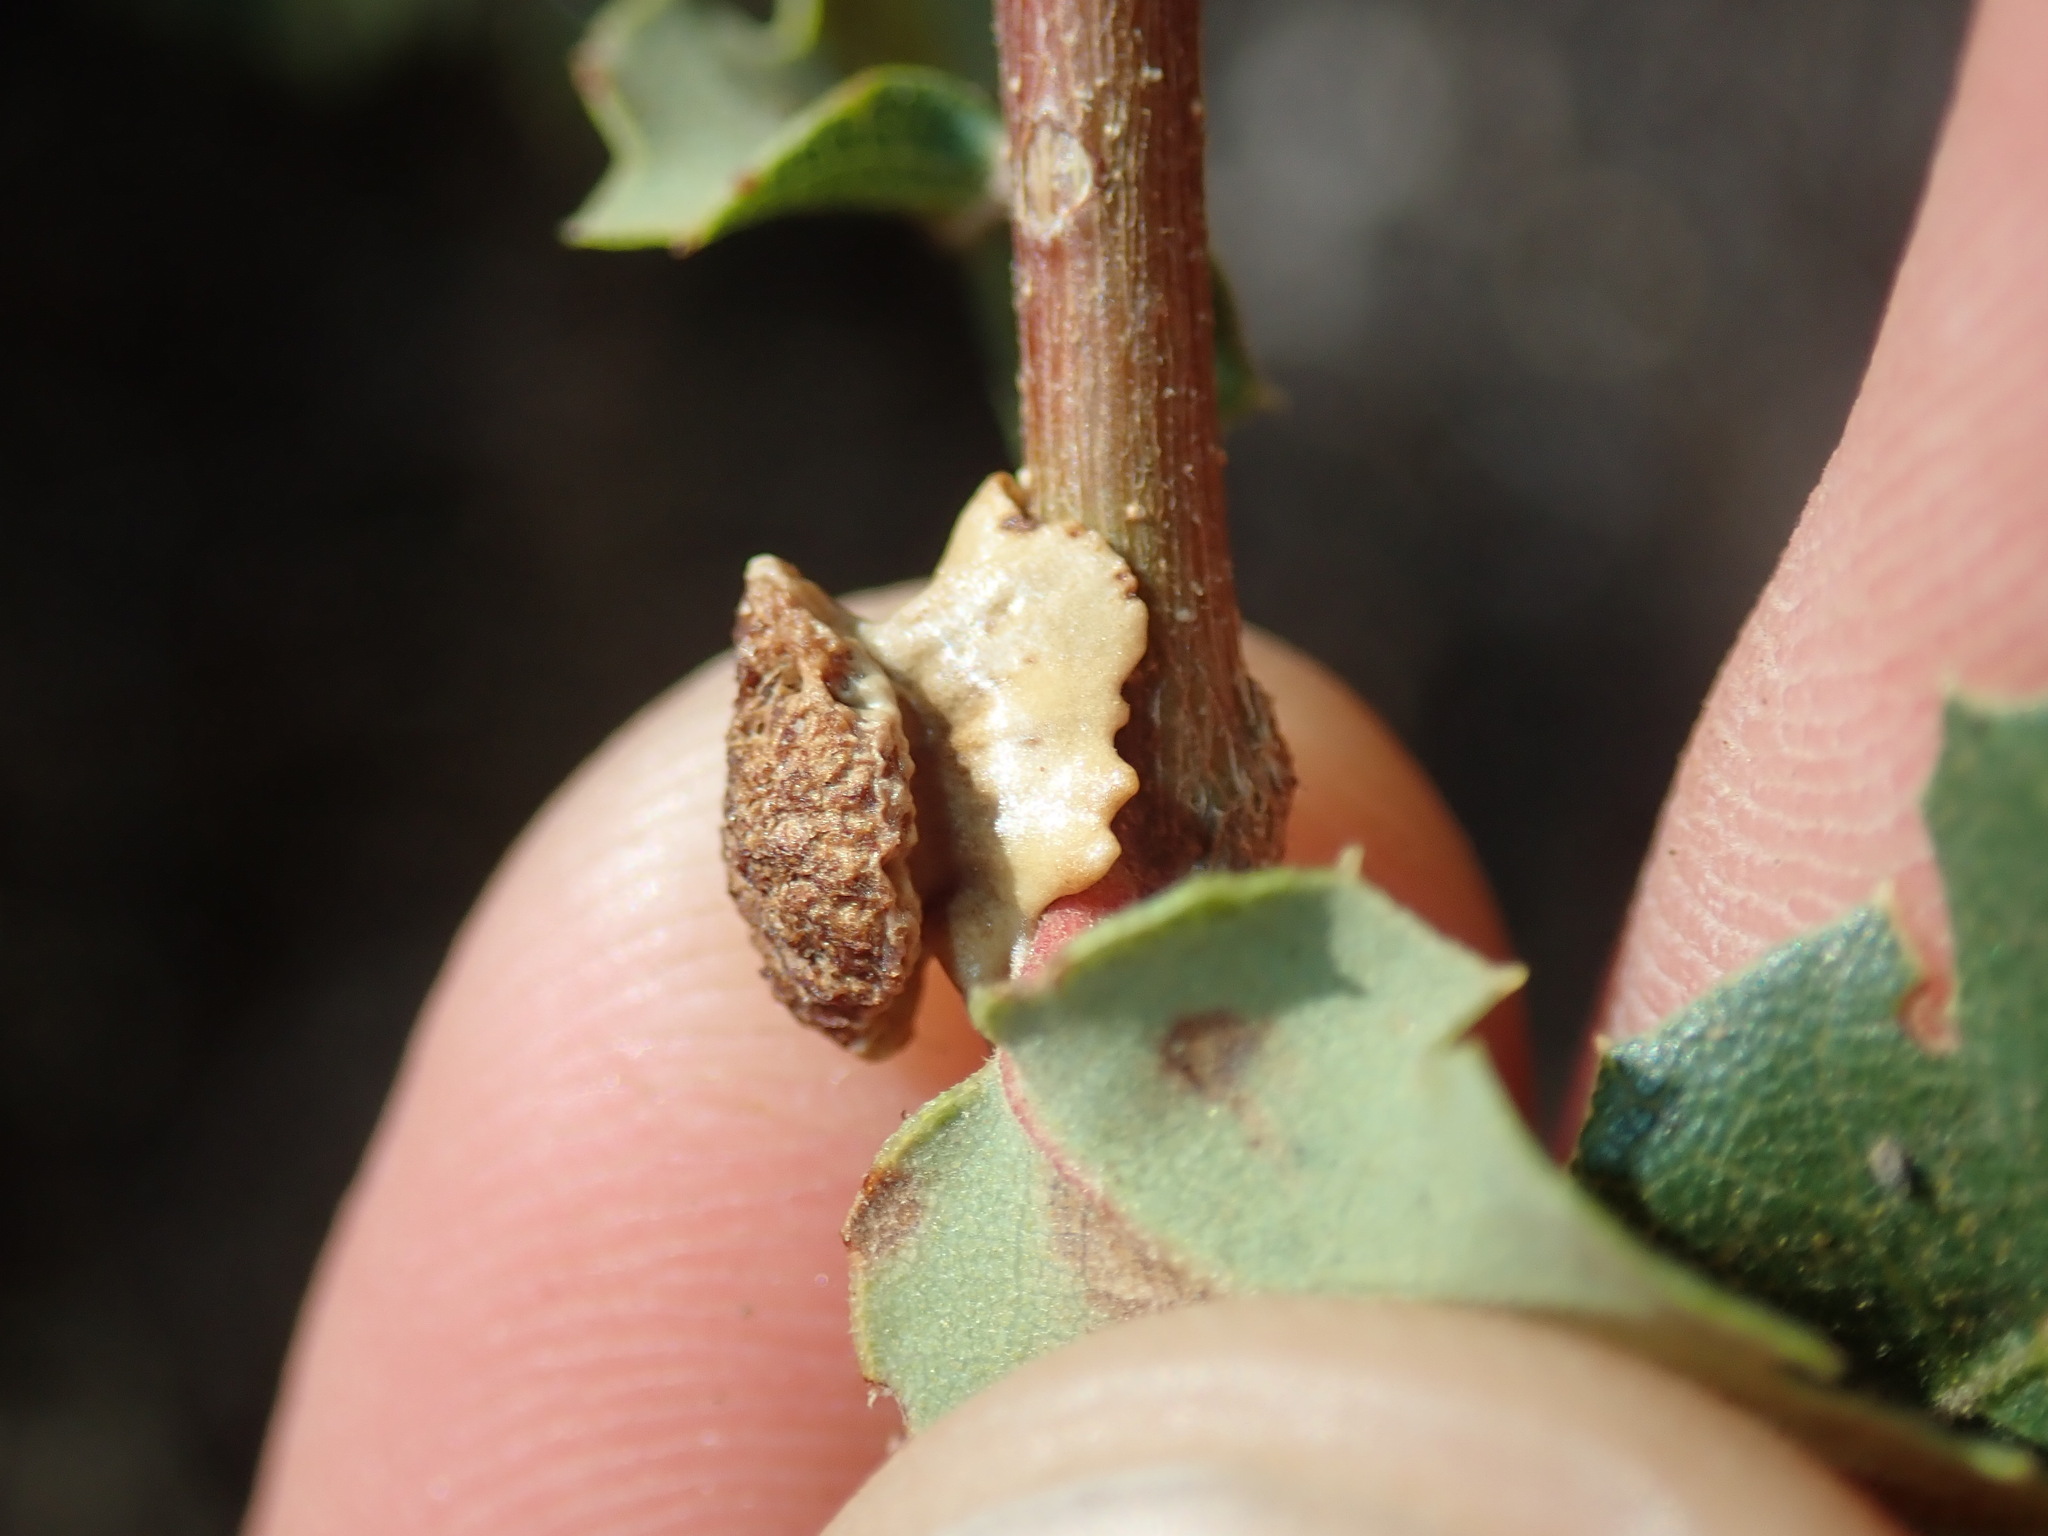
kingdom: Animalia
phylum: Arthropoda
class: Insecta
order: Hymenoptera
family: Cynipidae
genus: Disholcaspis
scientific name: Disholcaspis prehensa
